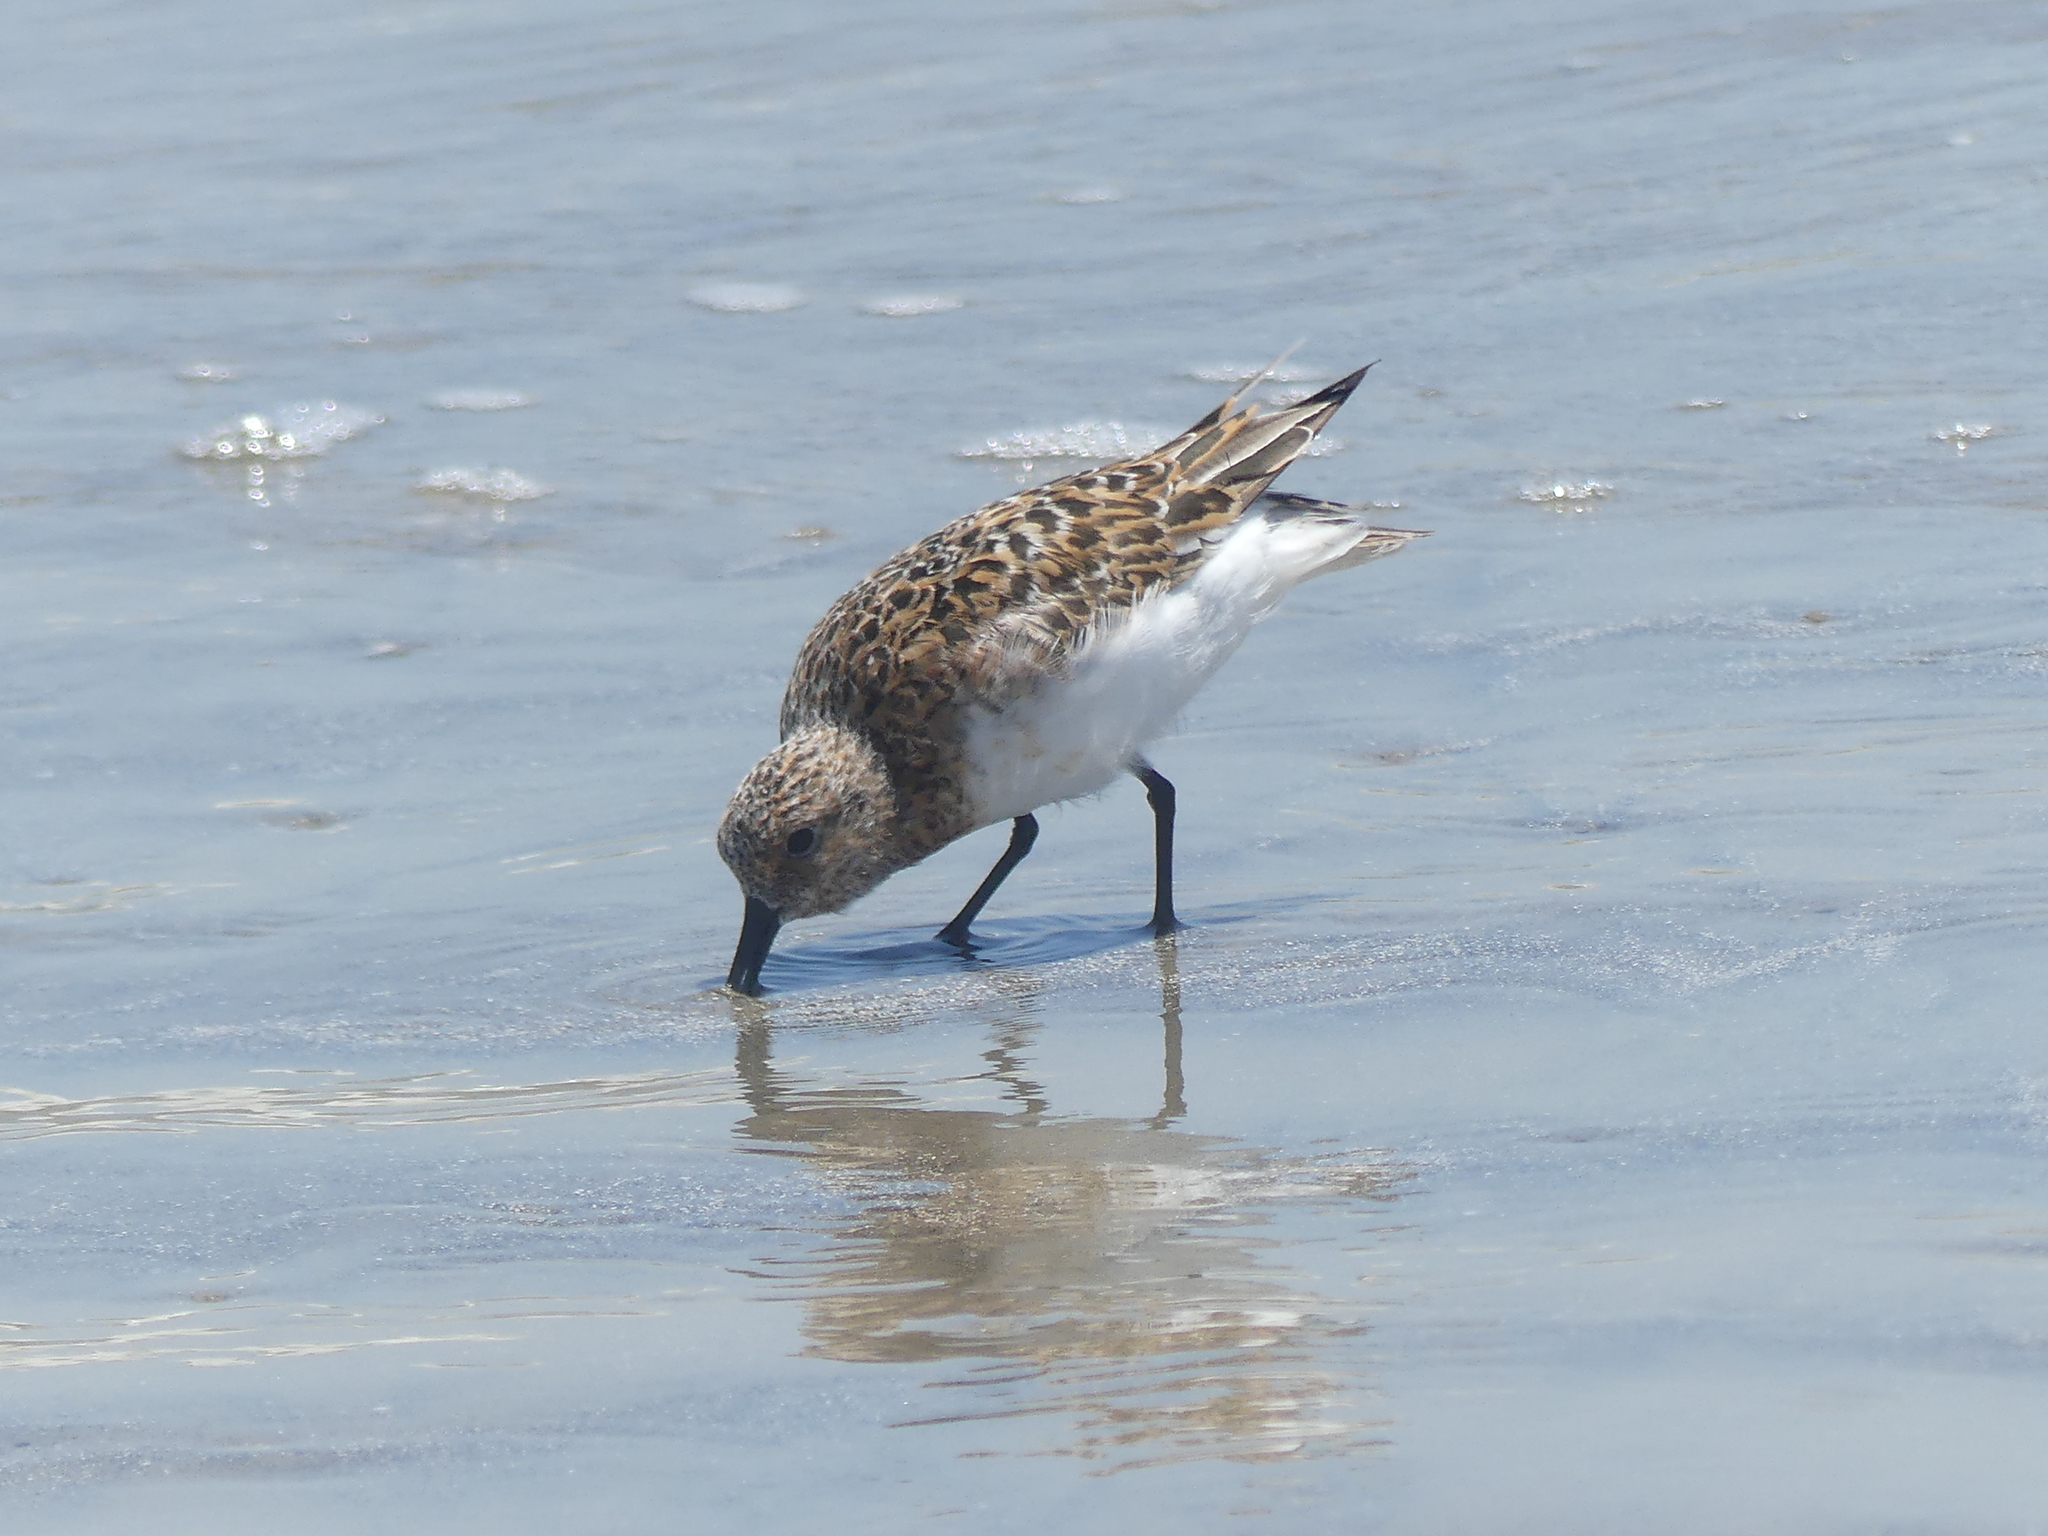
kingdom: Animalia
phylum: Chordata
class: Aves
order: Charadriiformes
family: Scolopacidae
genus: Calidris
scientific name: Calidris alba
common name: Sanderling
